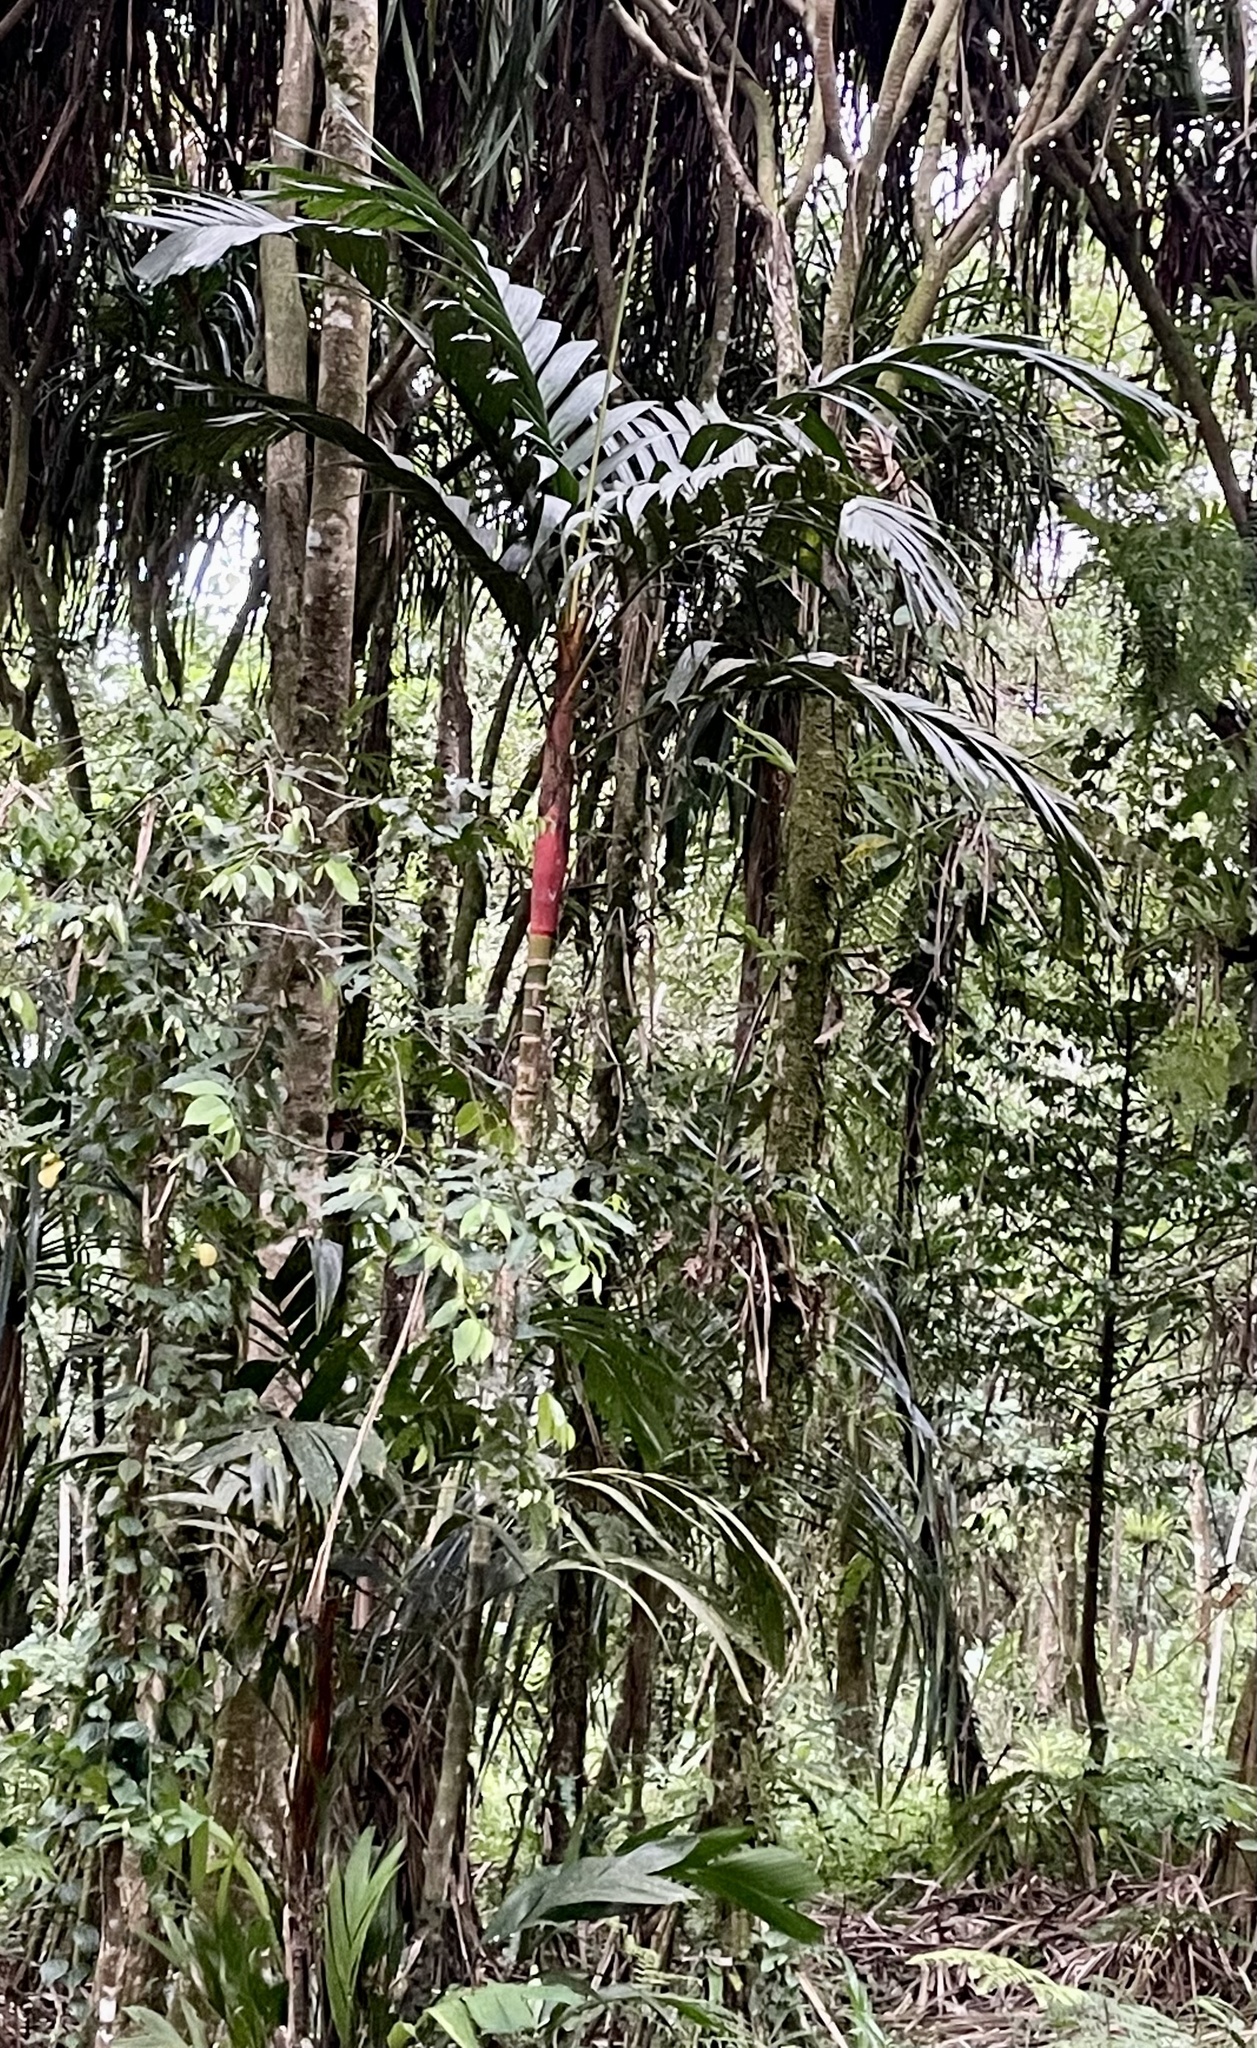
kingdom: Plantae
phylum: Tracheophyta
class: Liliopsida
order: Arecales
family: Arecaceae
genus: Areca
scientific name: Areca vestiaria
